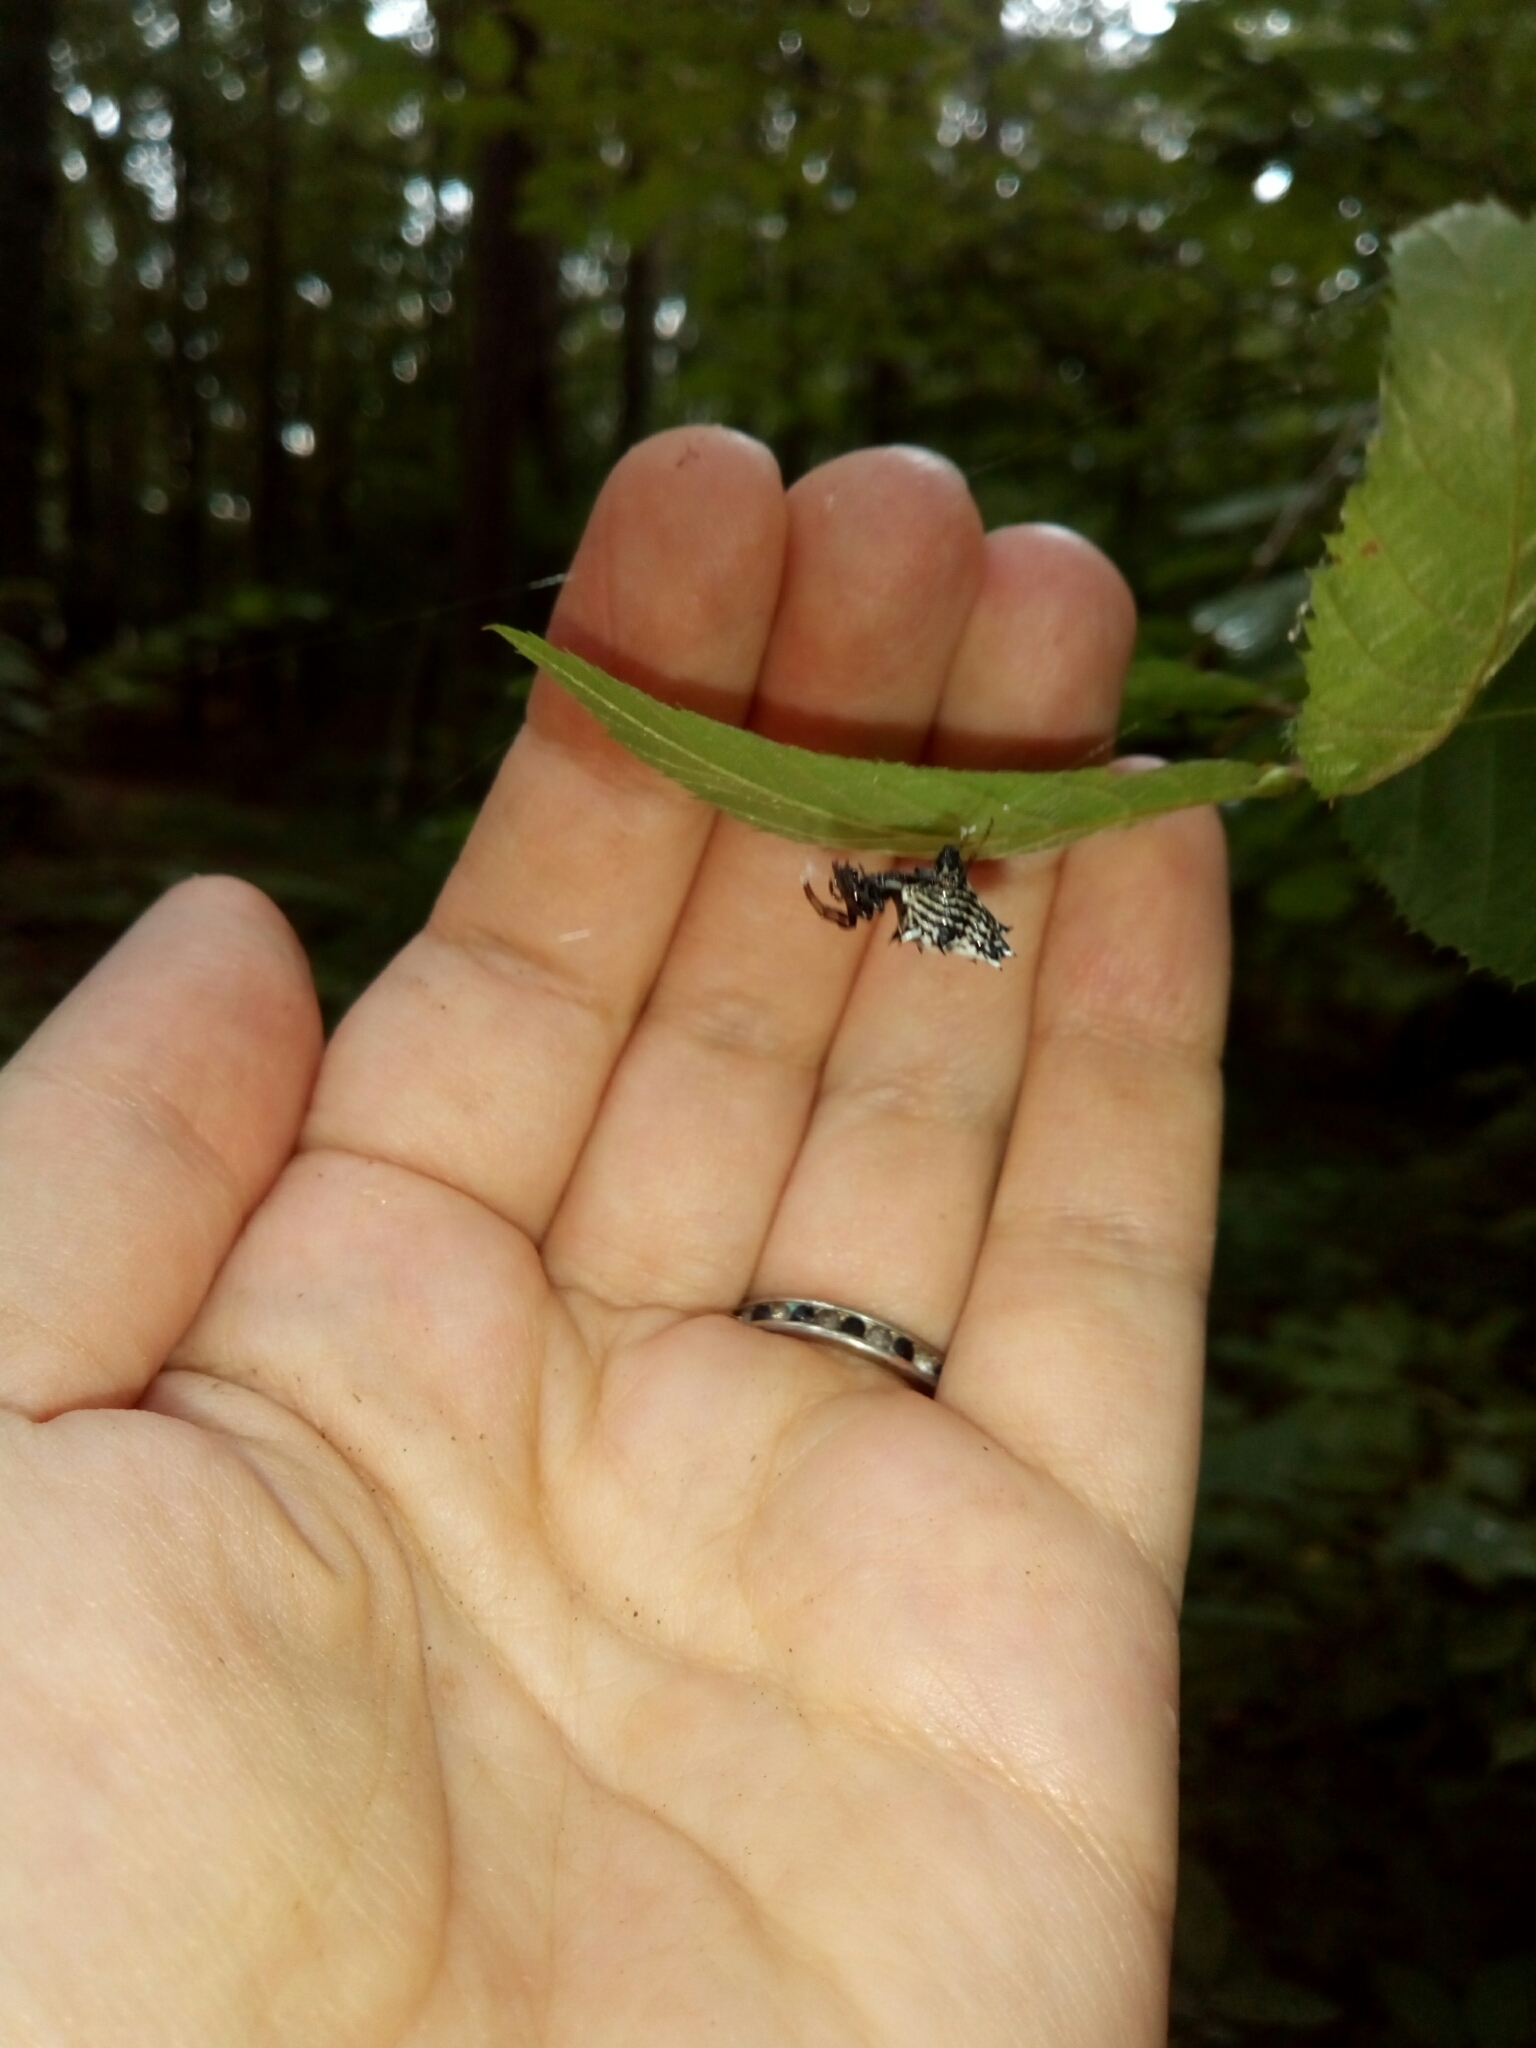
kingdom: Animalia
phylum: Arthropoda
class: Arachnida
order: Araneae
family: Araneidae
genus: Micrathena
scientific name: Micrathena gracilis
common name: Orb weavers
